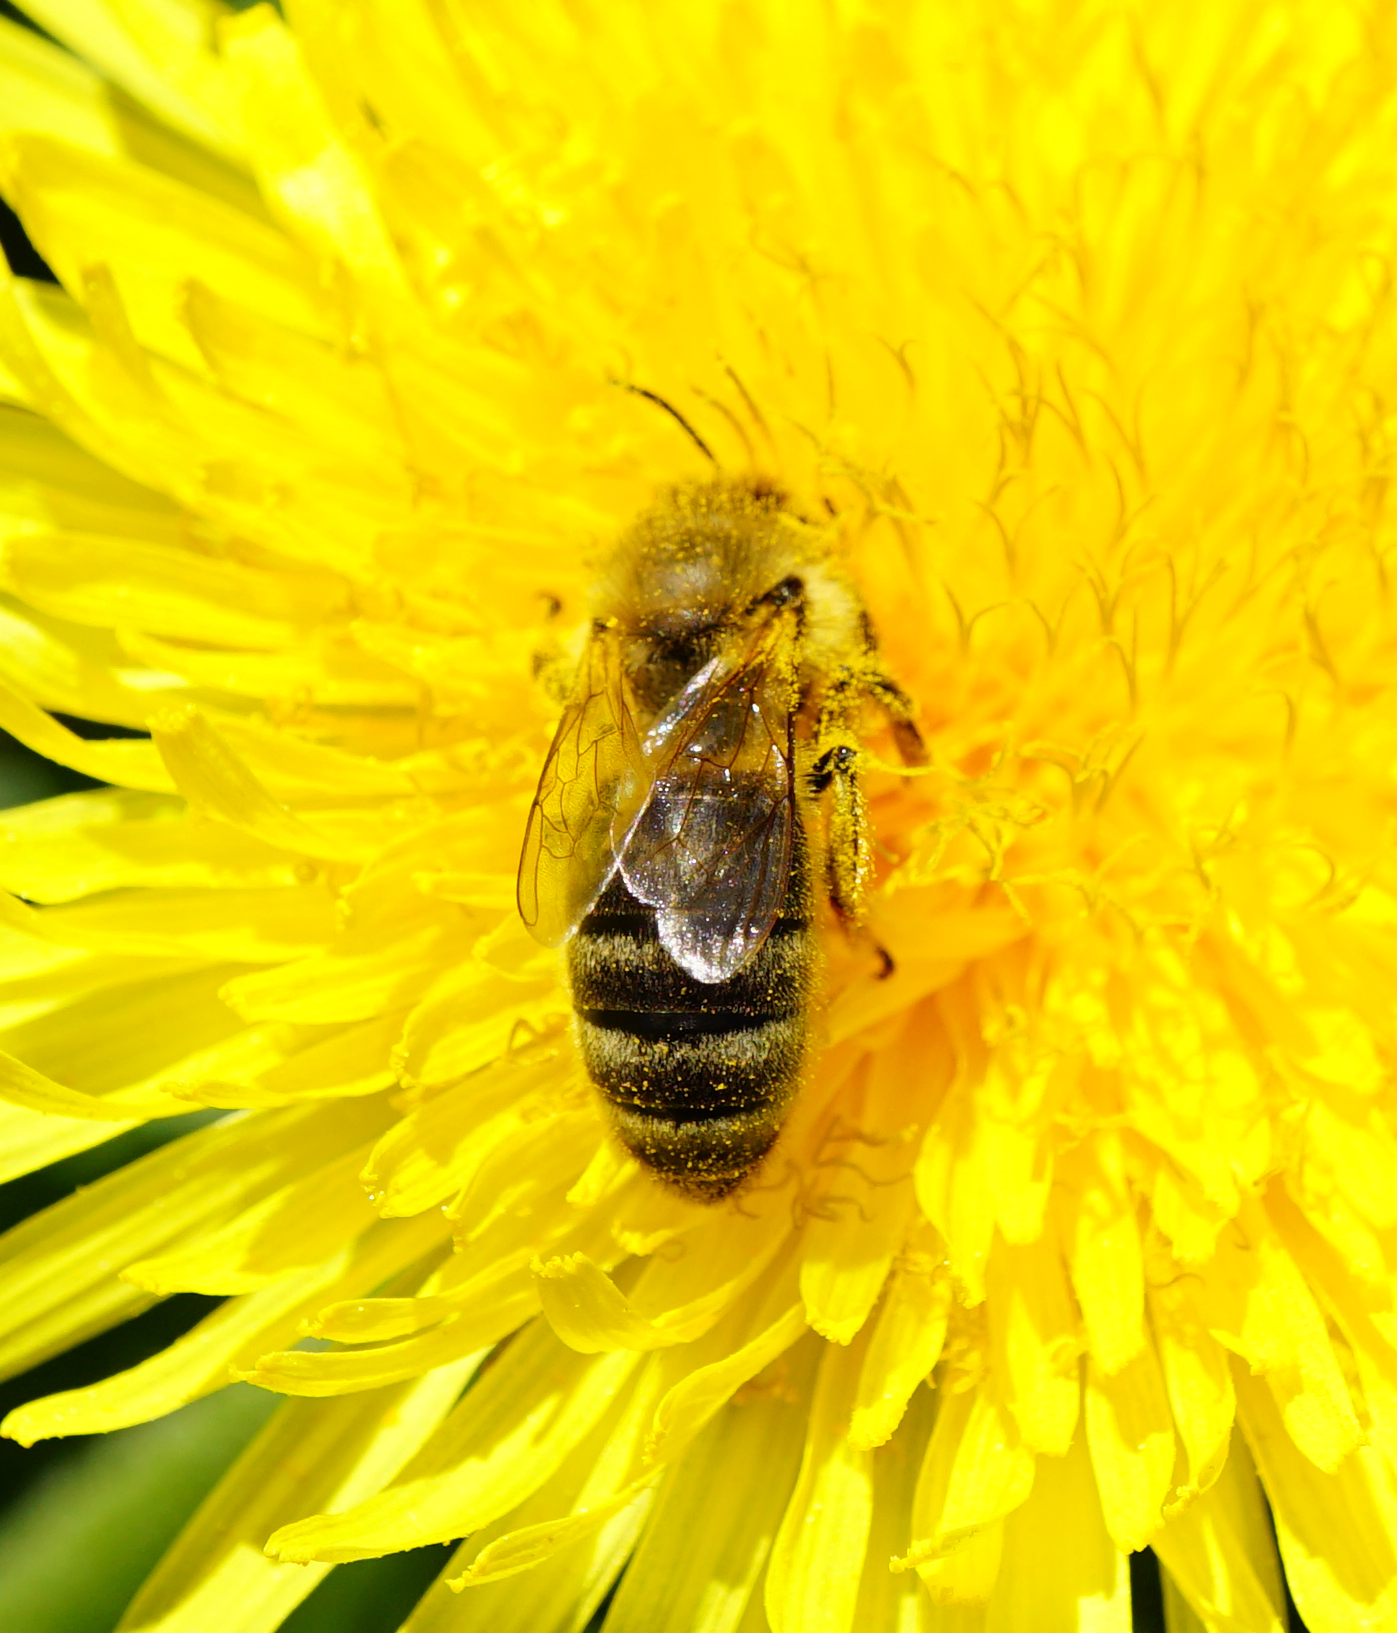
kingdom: Animalia
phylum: Arthropoda
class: Insecta
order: Hymenoptera
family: Apidae
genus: Apis
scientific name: Apis mellifera
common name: Honey bee
